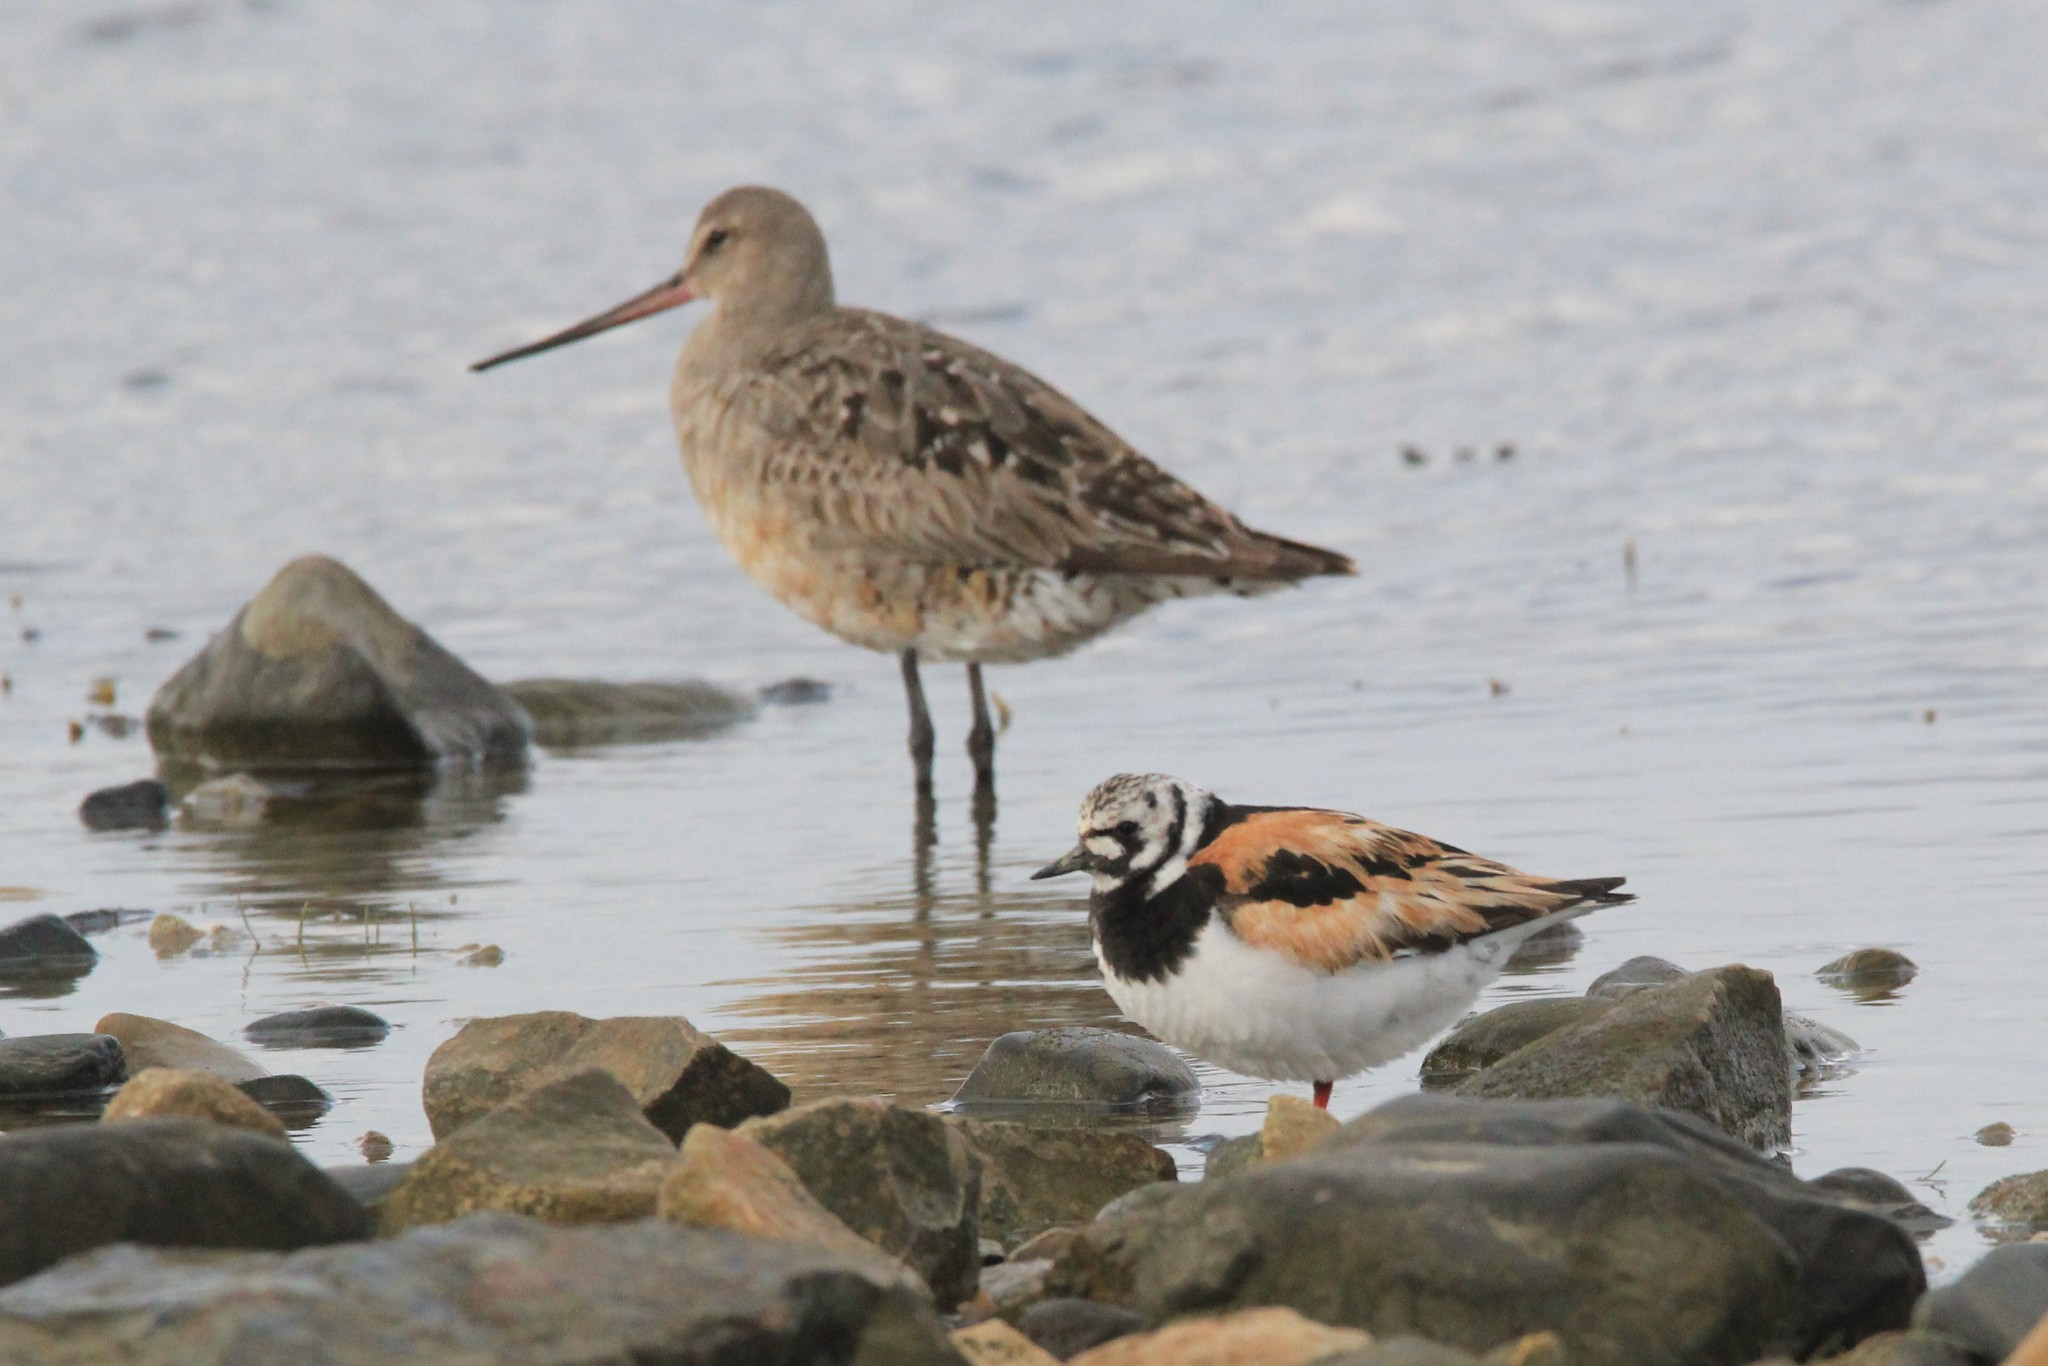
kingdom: Animalia
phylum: Chordata
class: Aves
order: Charadriiformes
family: Scolopacidae
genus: Arenaria
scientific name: Arenaria interpres
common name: Ruddy turnstone
